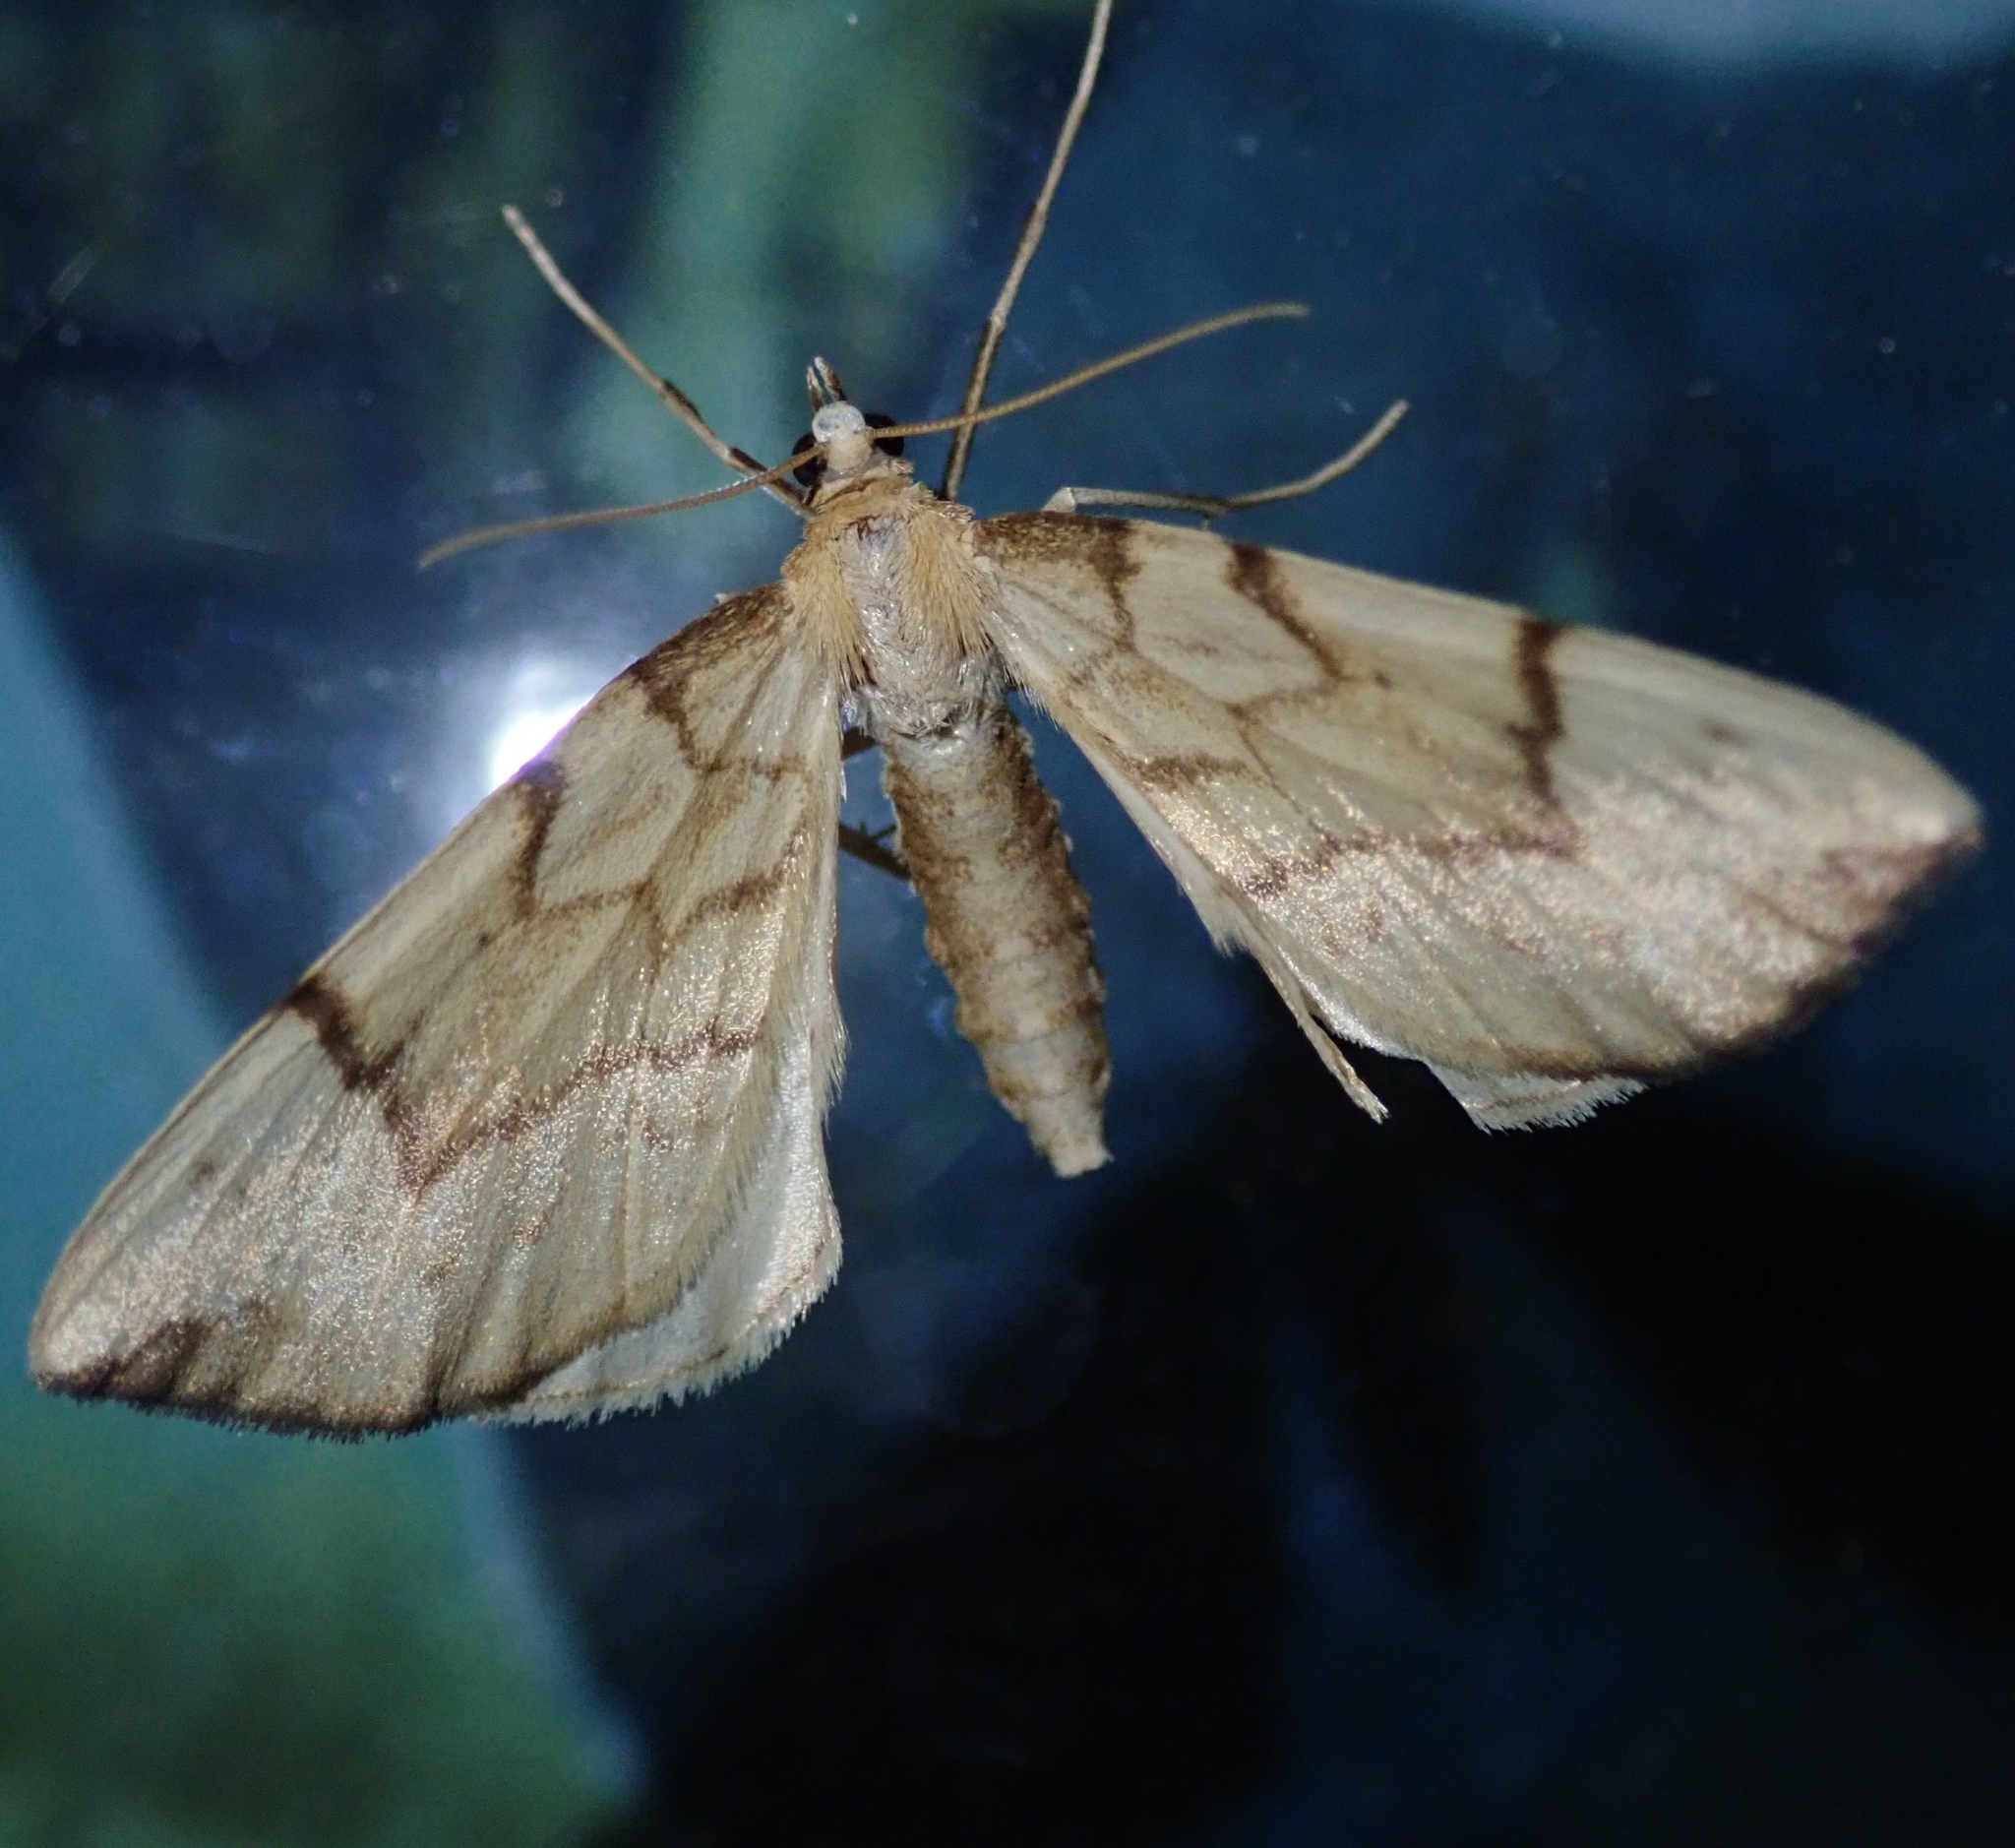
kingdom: Animalia
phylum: Arthropoda
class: Insecta
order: Lepidoptera
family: Geometridae
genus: Eulithis
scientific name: Eulithis pyraliata
